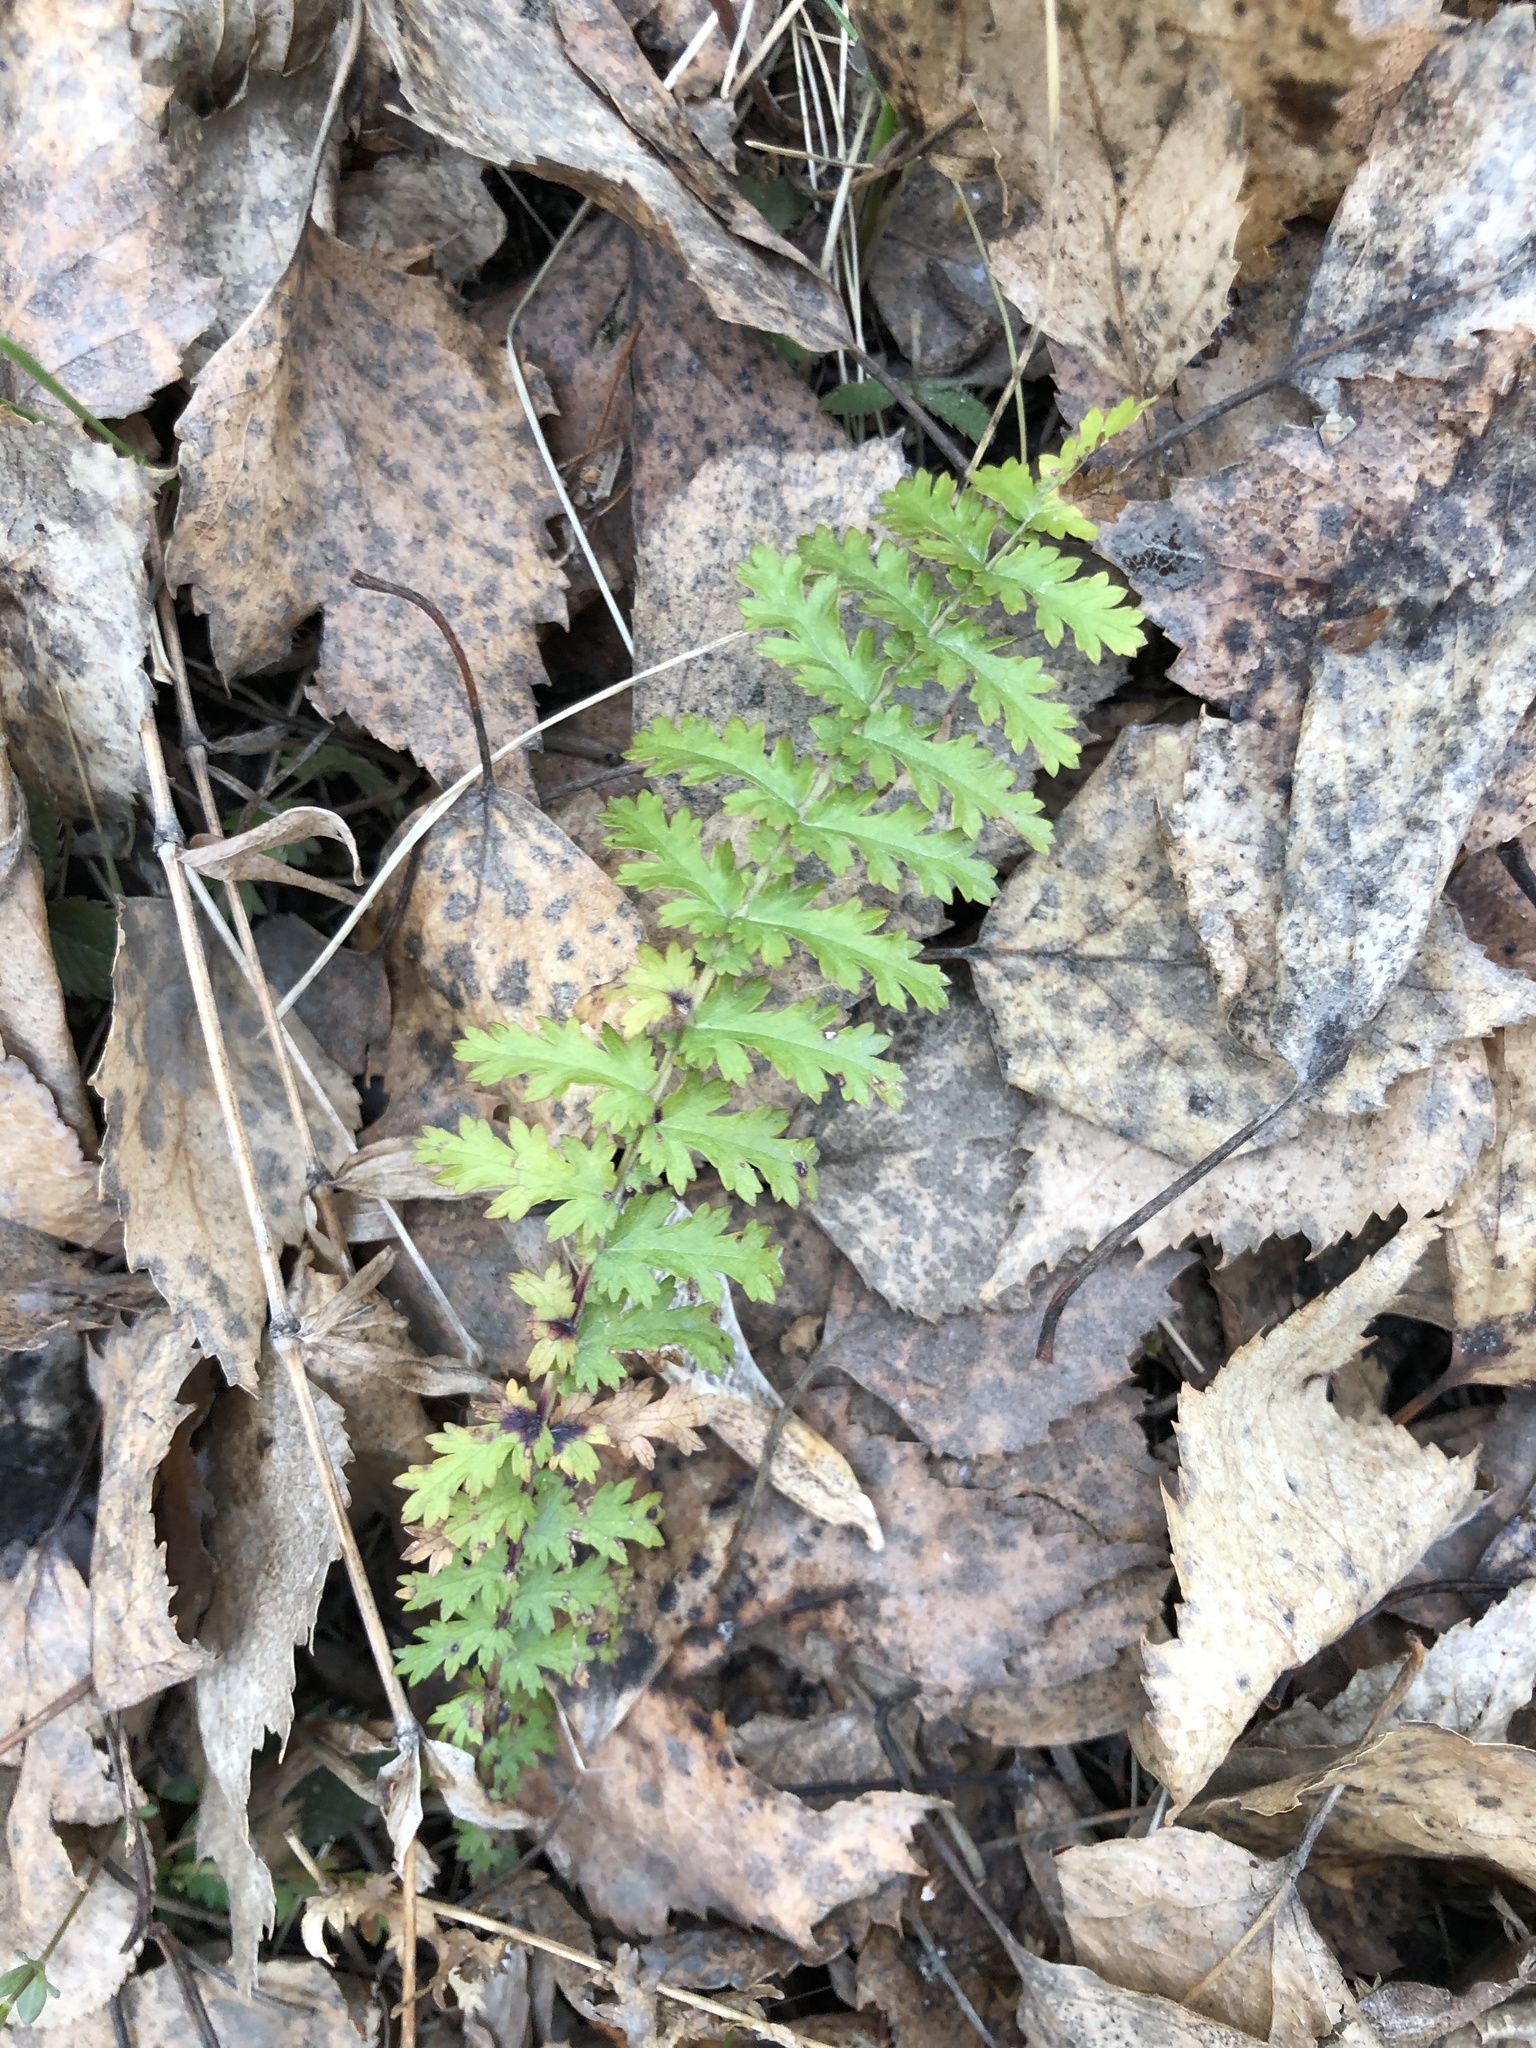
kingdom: Plantae
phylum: Tracheophyta
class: Magnoliopsida
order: Rosales
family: Rosaceae
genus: Filipendula
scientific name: Filipendula vulgaris
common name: Dropwort
